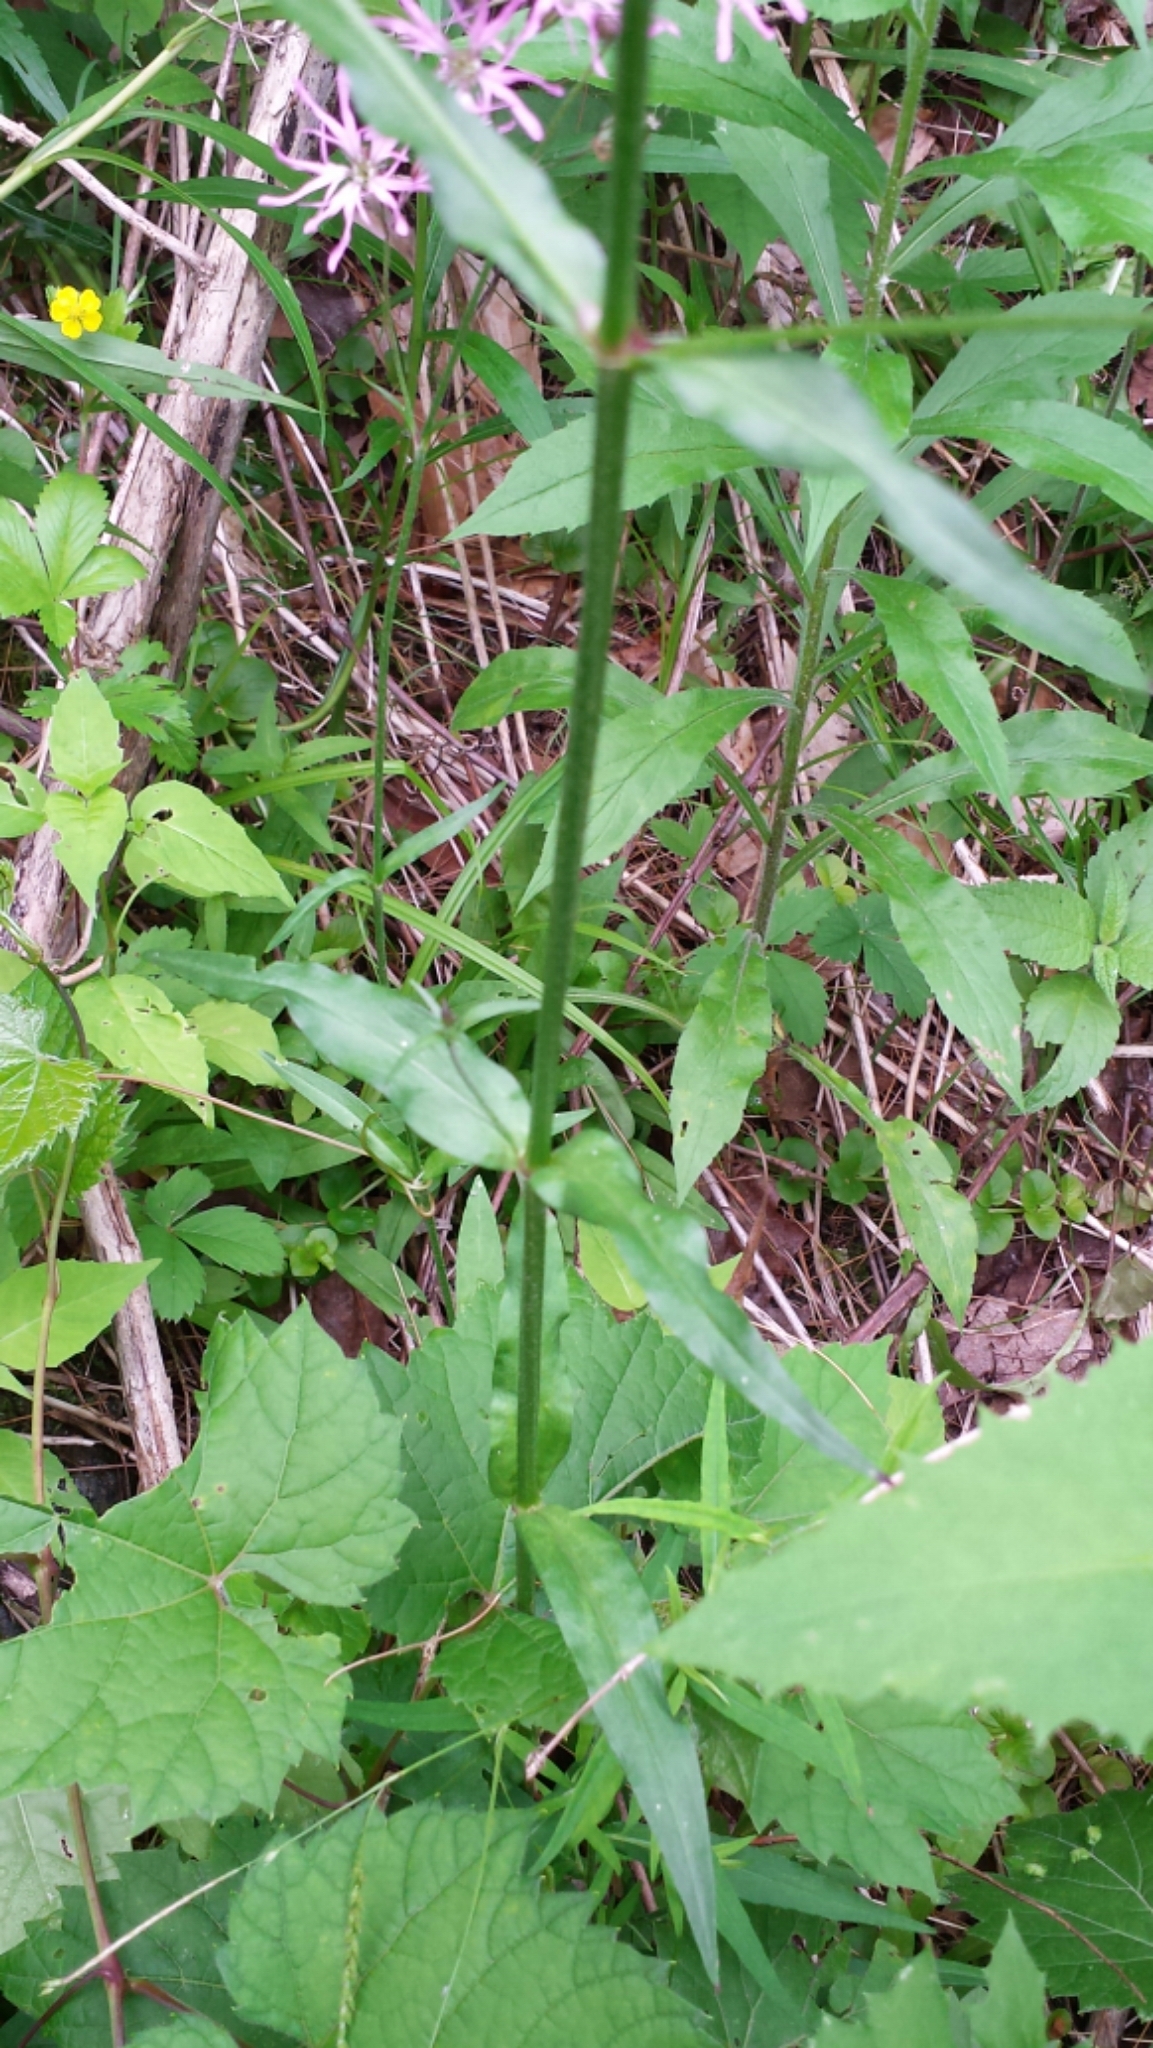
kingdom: Plantae
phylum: Tracheophyta
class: Magnoliopsida
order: Caryophyllales
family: Caryophyllaceae
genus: Silene
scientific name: Silene flos-cuculi
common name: Ragged-robin
